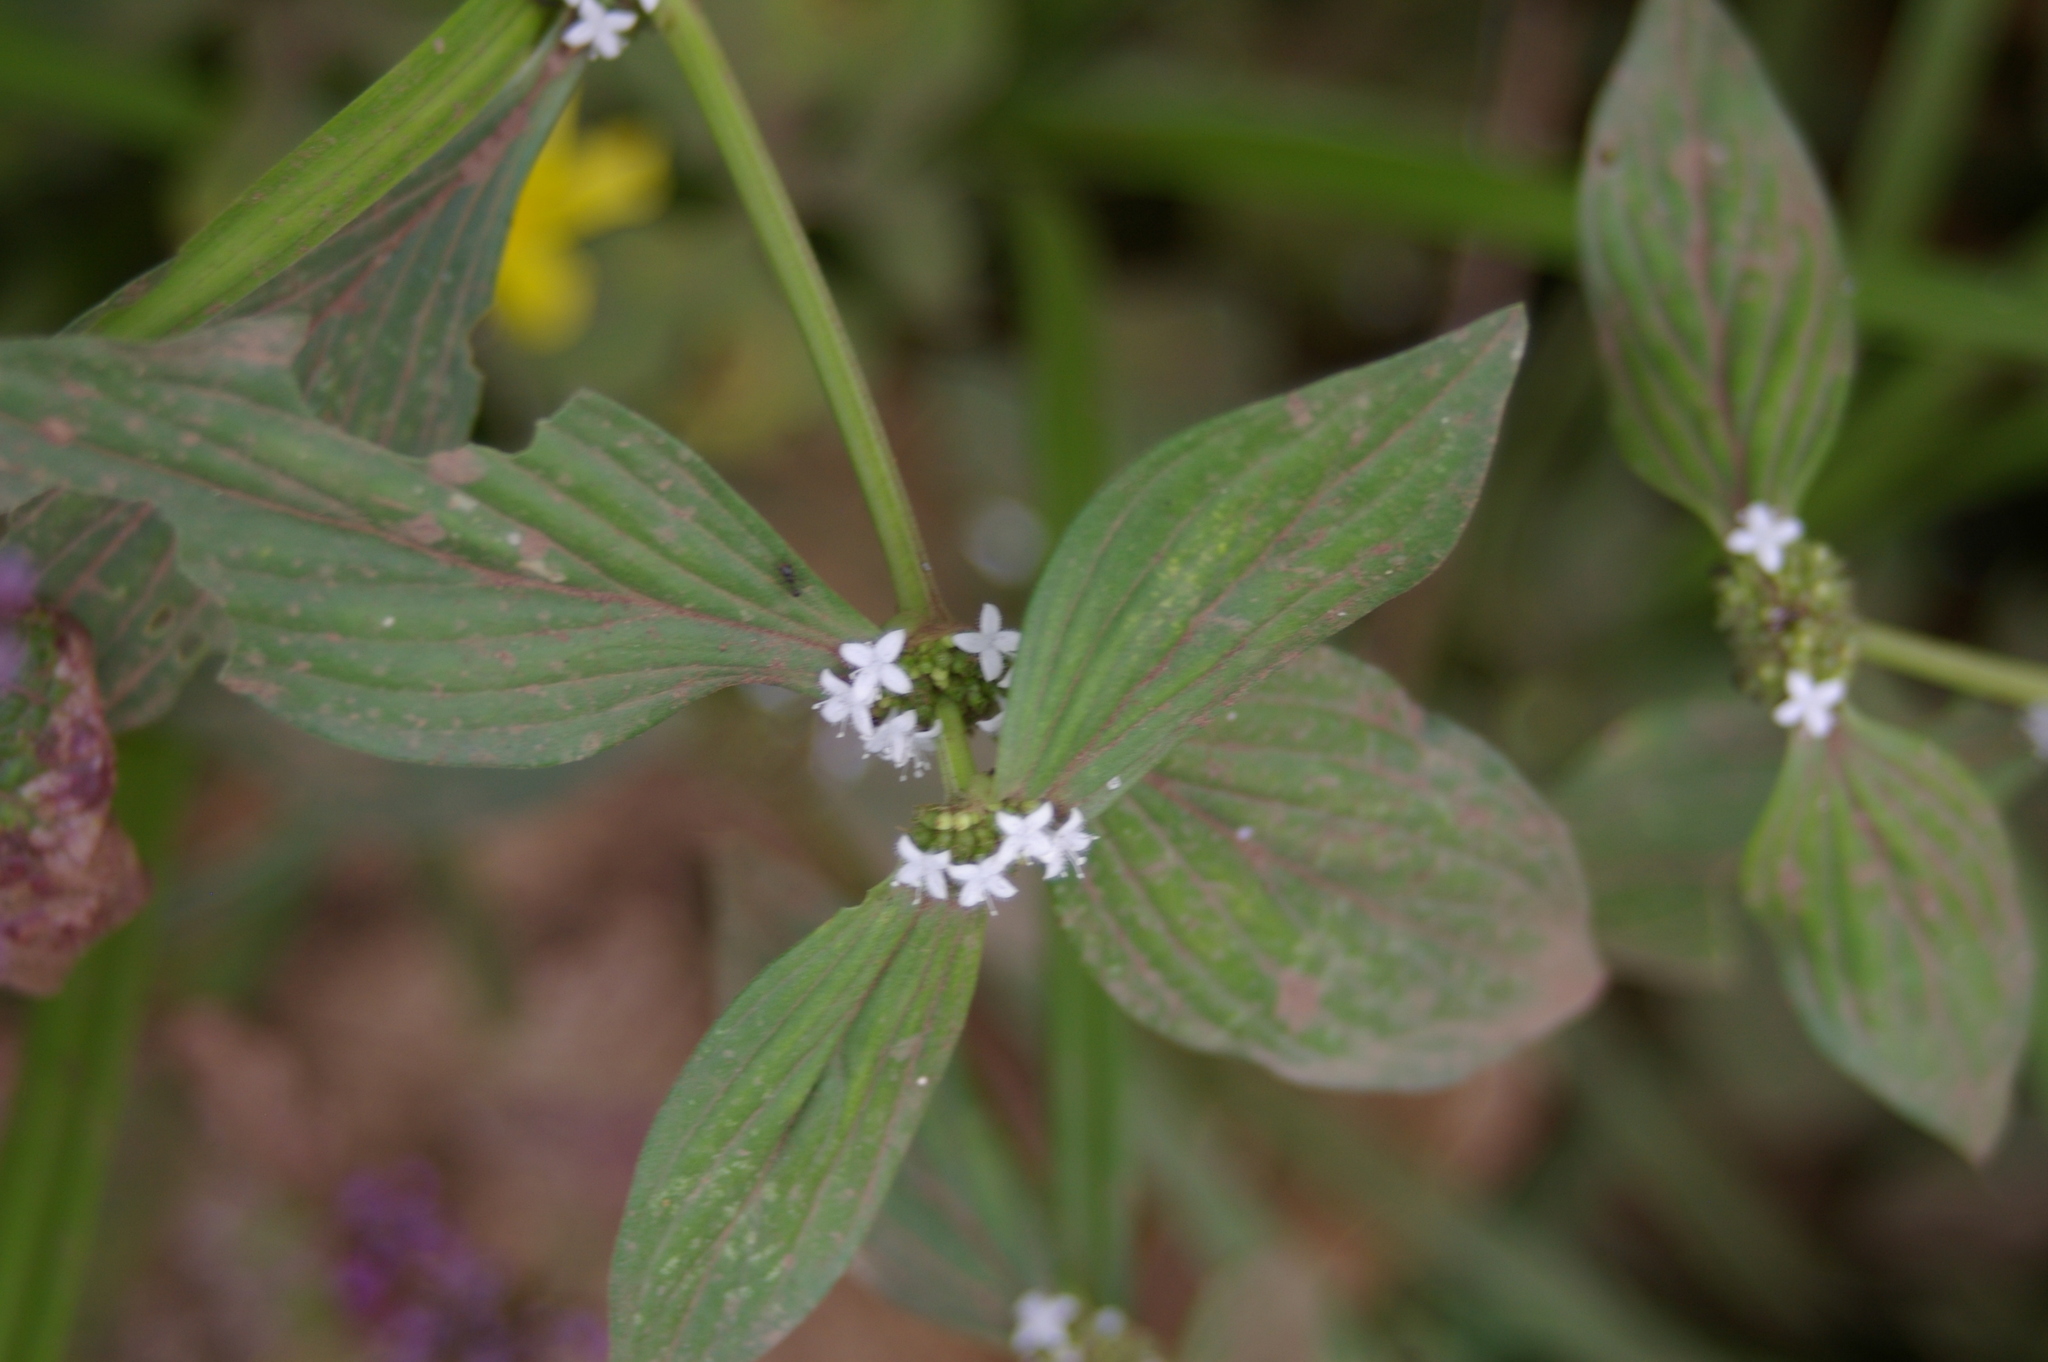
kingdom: Plantae
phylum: Tracheophyta
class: Magnoliopsida
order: Gentianales
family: Rubiaceae
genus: Spermacoce
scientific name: Spermacoce remota
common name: Woodland false buttonweed
